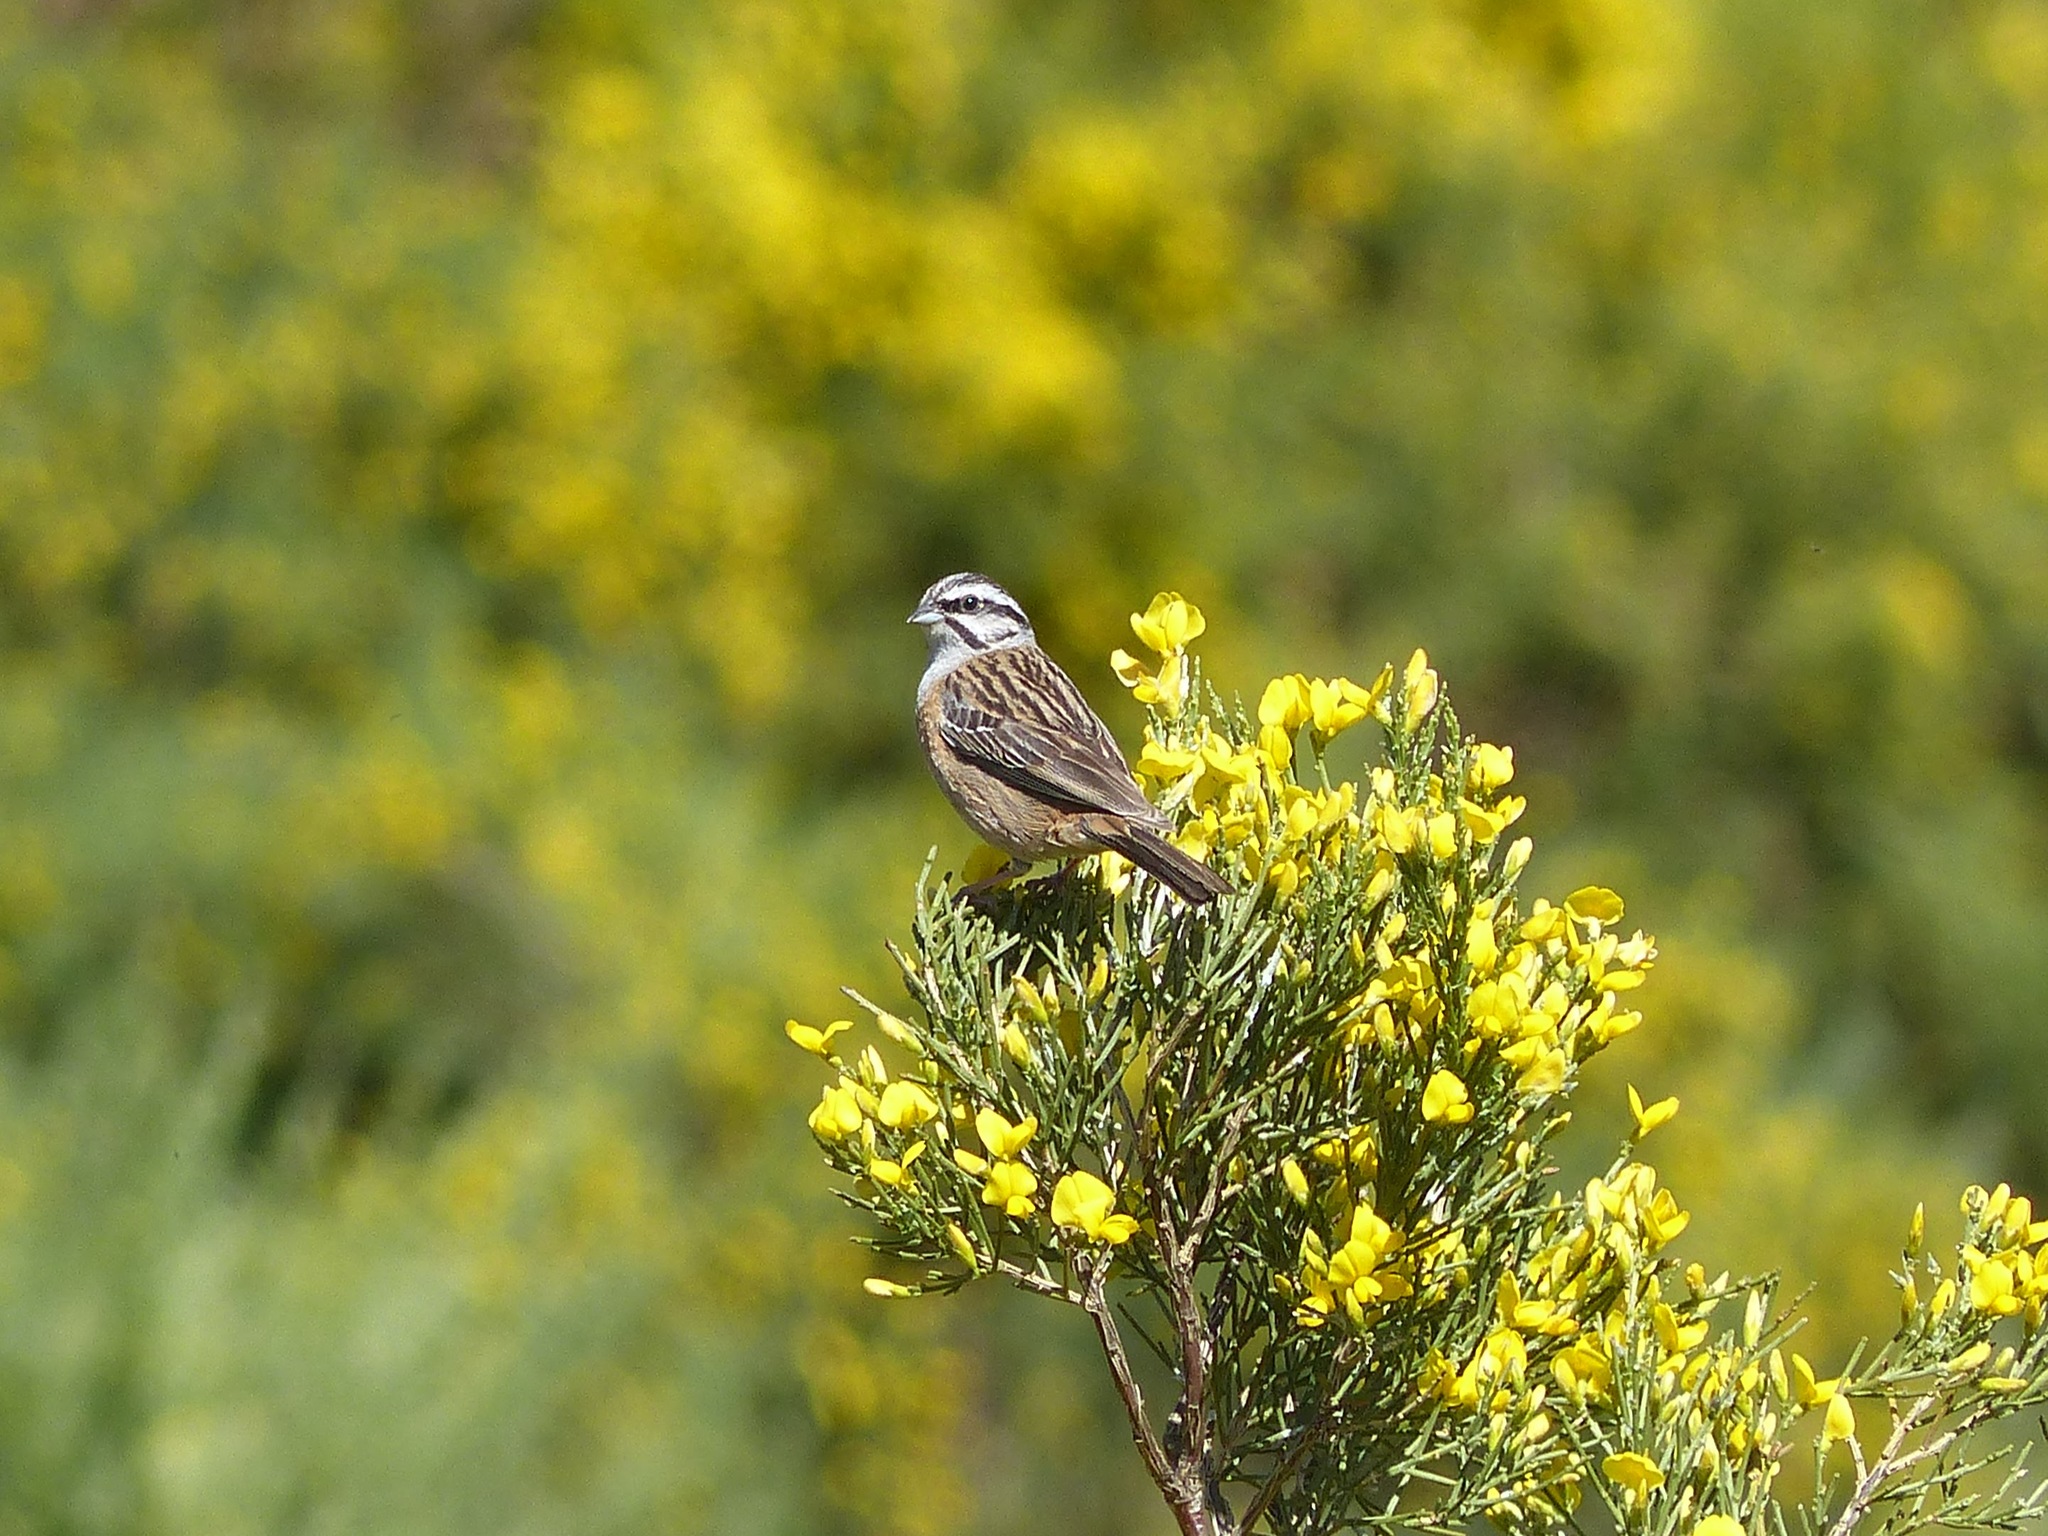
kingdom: Animalia
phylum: Chordata
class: Aves
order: Passeriformes
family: Emberizidae
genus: Emberiza
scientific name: Emberiza cia
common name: Rock bunting
